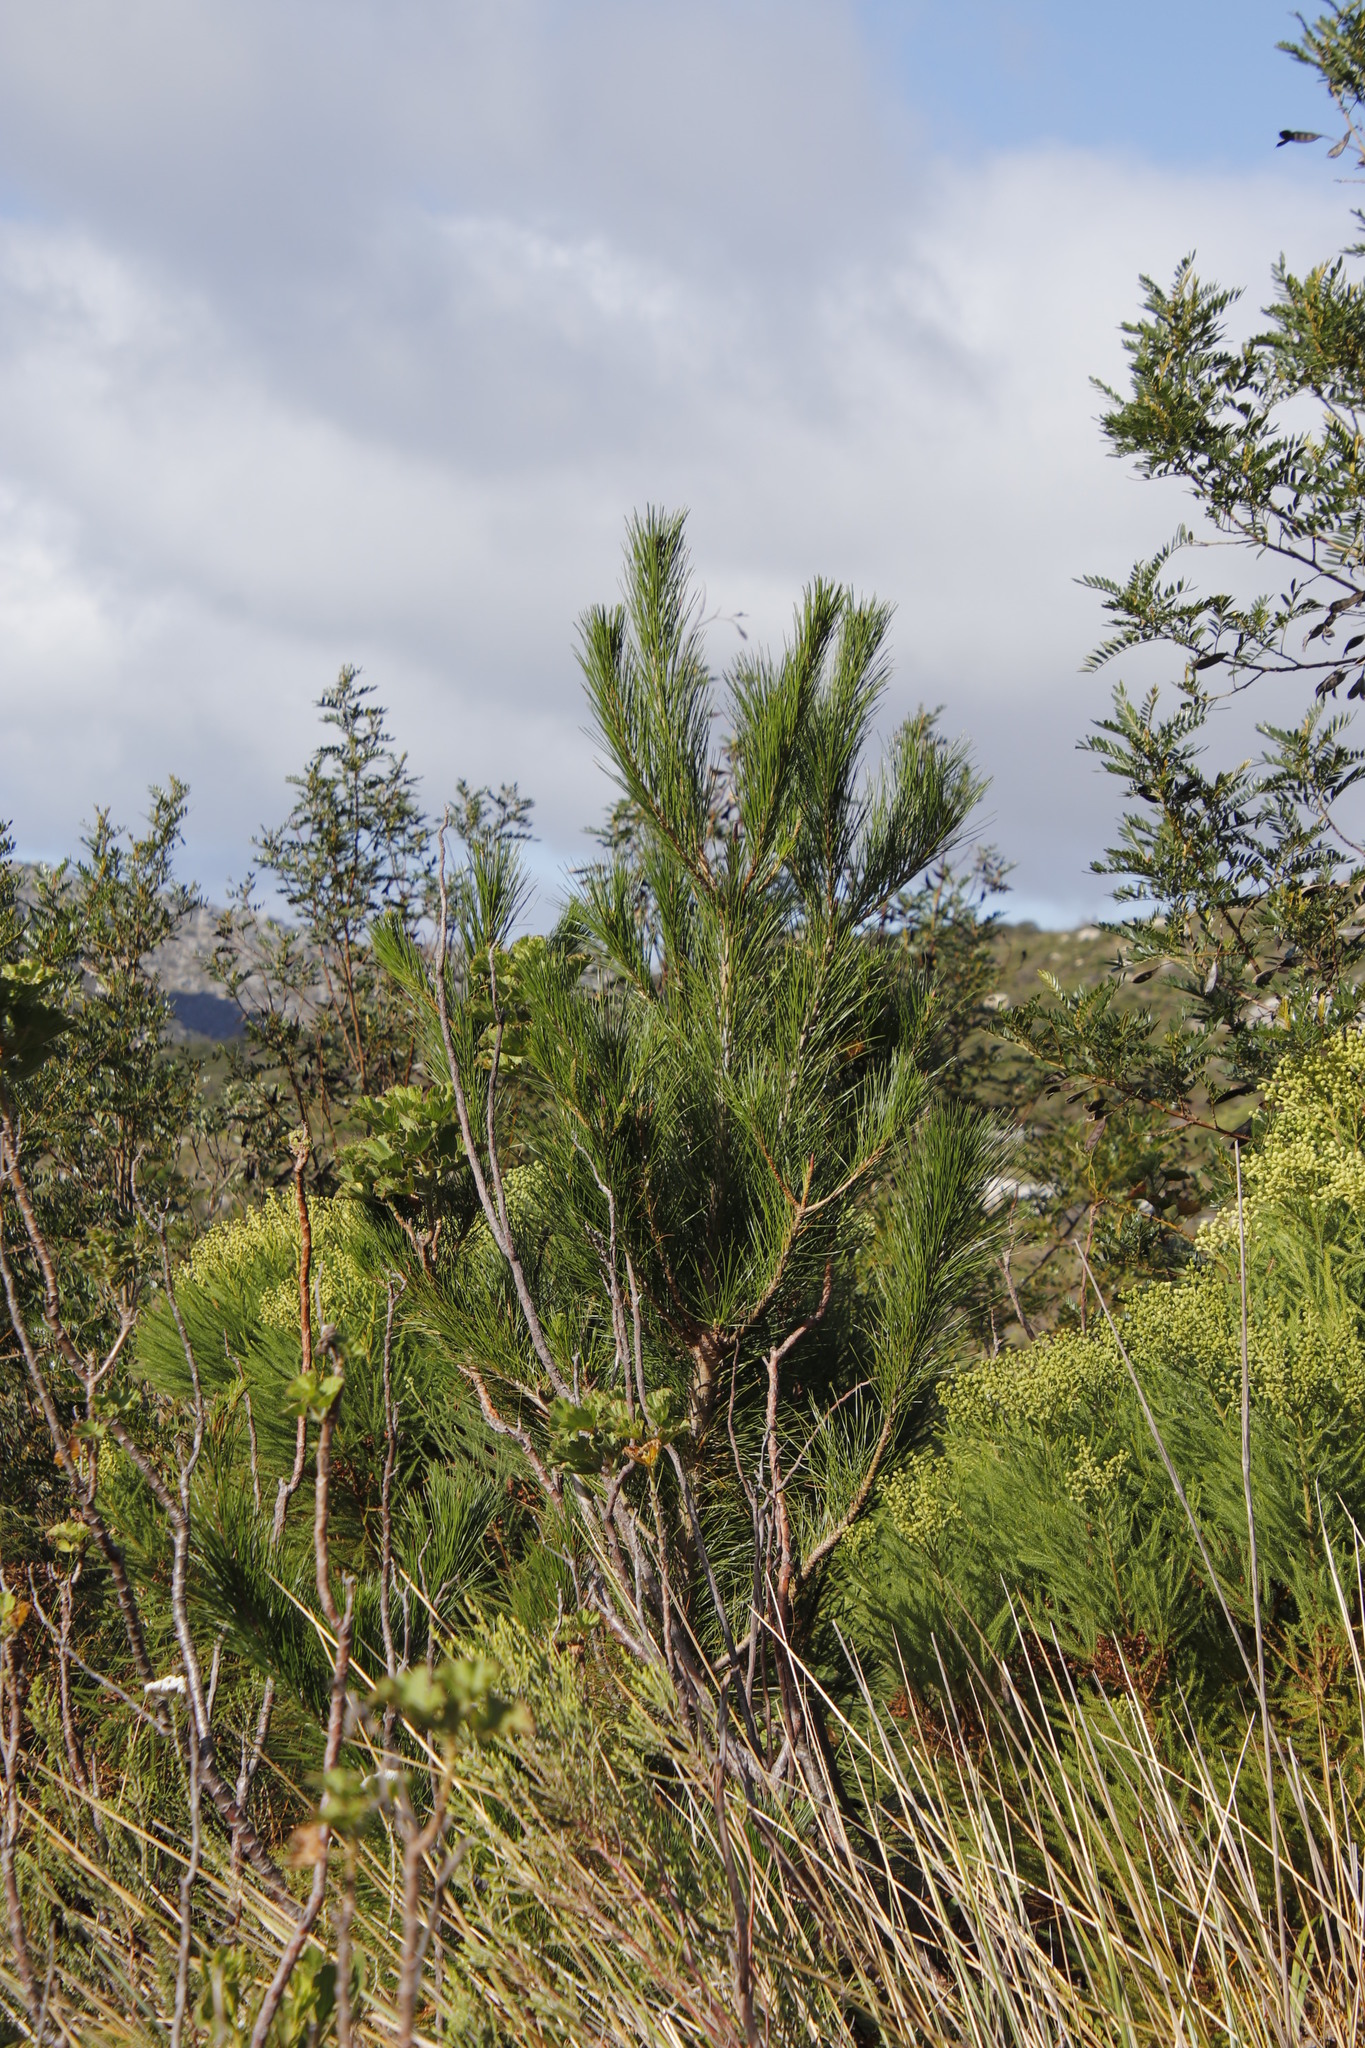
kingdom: Plantae
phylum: Tracheophyta
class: Pinopsida
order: Pinales
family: Pinaceae
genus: Pinus
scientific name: Pinus radiata
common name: Monterey pine
